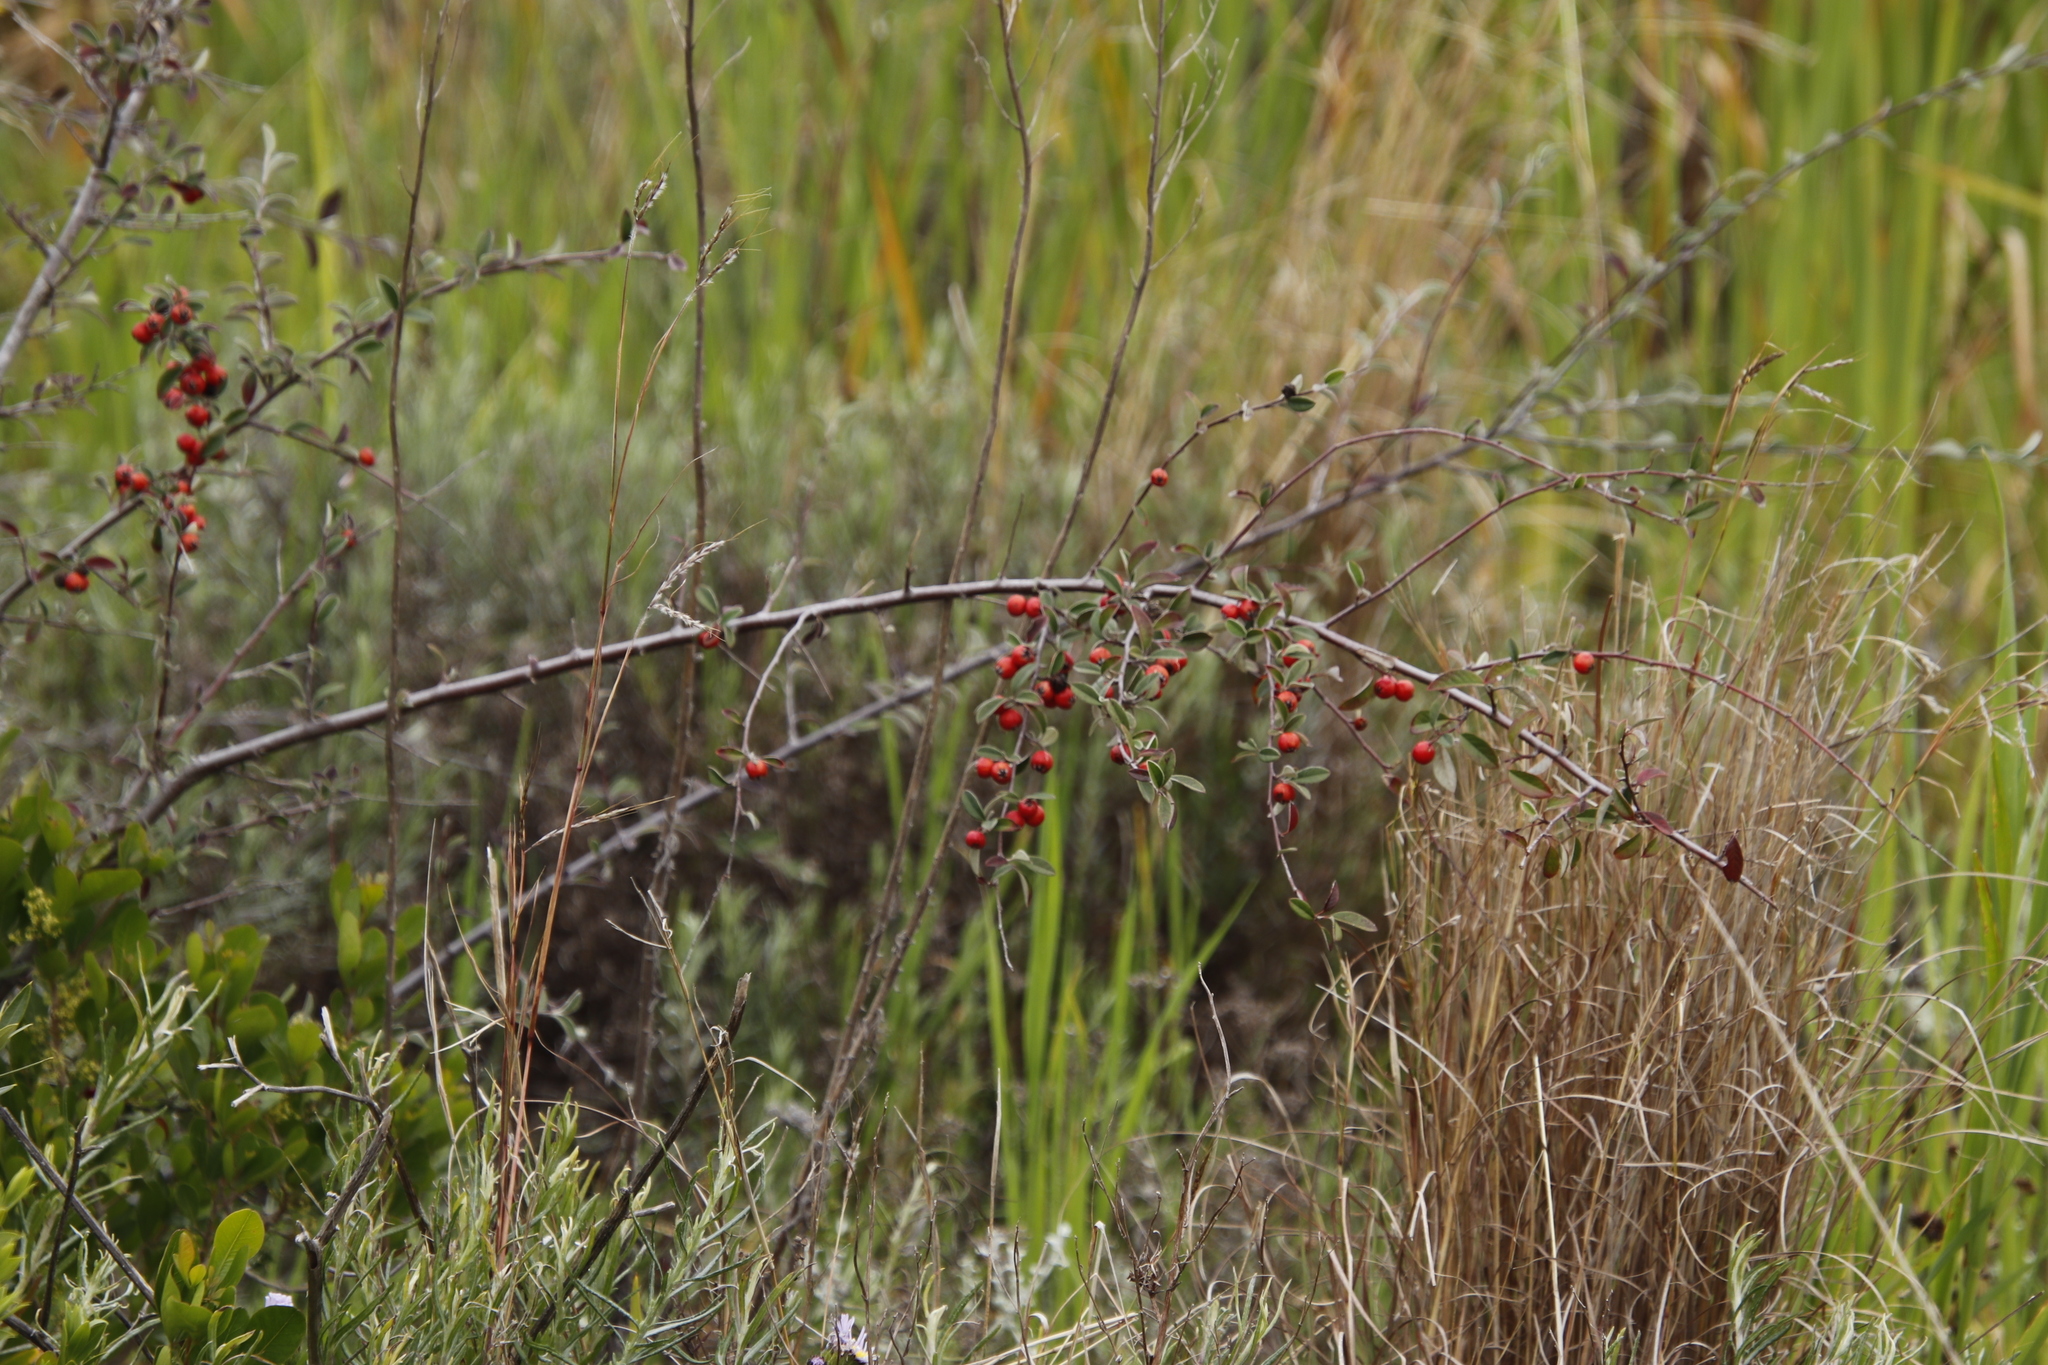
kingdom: Plantae
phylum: Tracheophyta
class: Magnoliopsida
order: Rosales
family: Rosaceae
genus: Cotoneaster
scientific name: Cotoneaster pannosus
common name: Silverleaf cotoneaster
